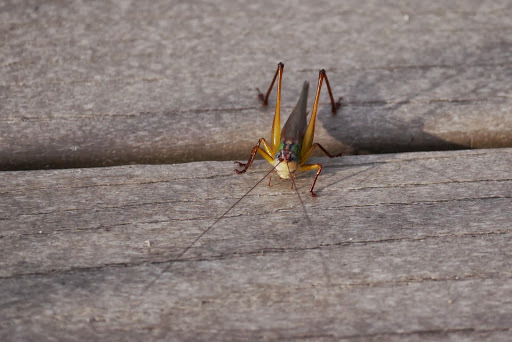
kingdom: Animalia
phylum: Arthropoda
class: Insecta
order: Orthoptera
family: Tettigoniidae
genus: Orchelimum
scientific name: Orchelimum pulchellum
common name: Handsome meadow katydid
